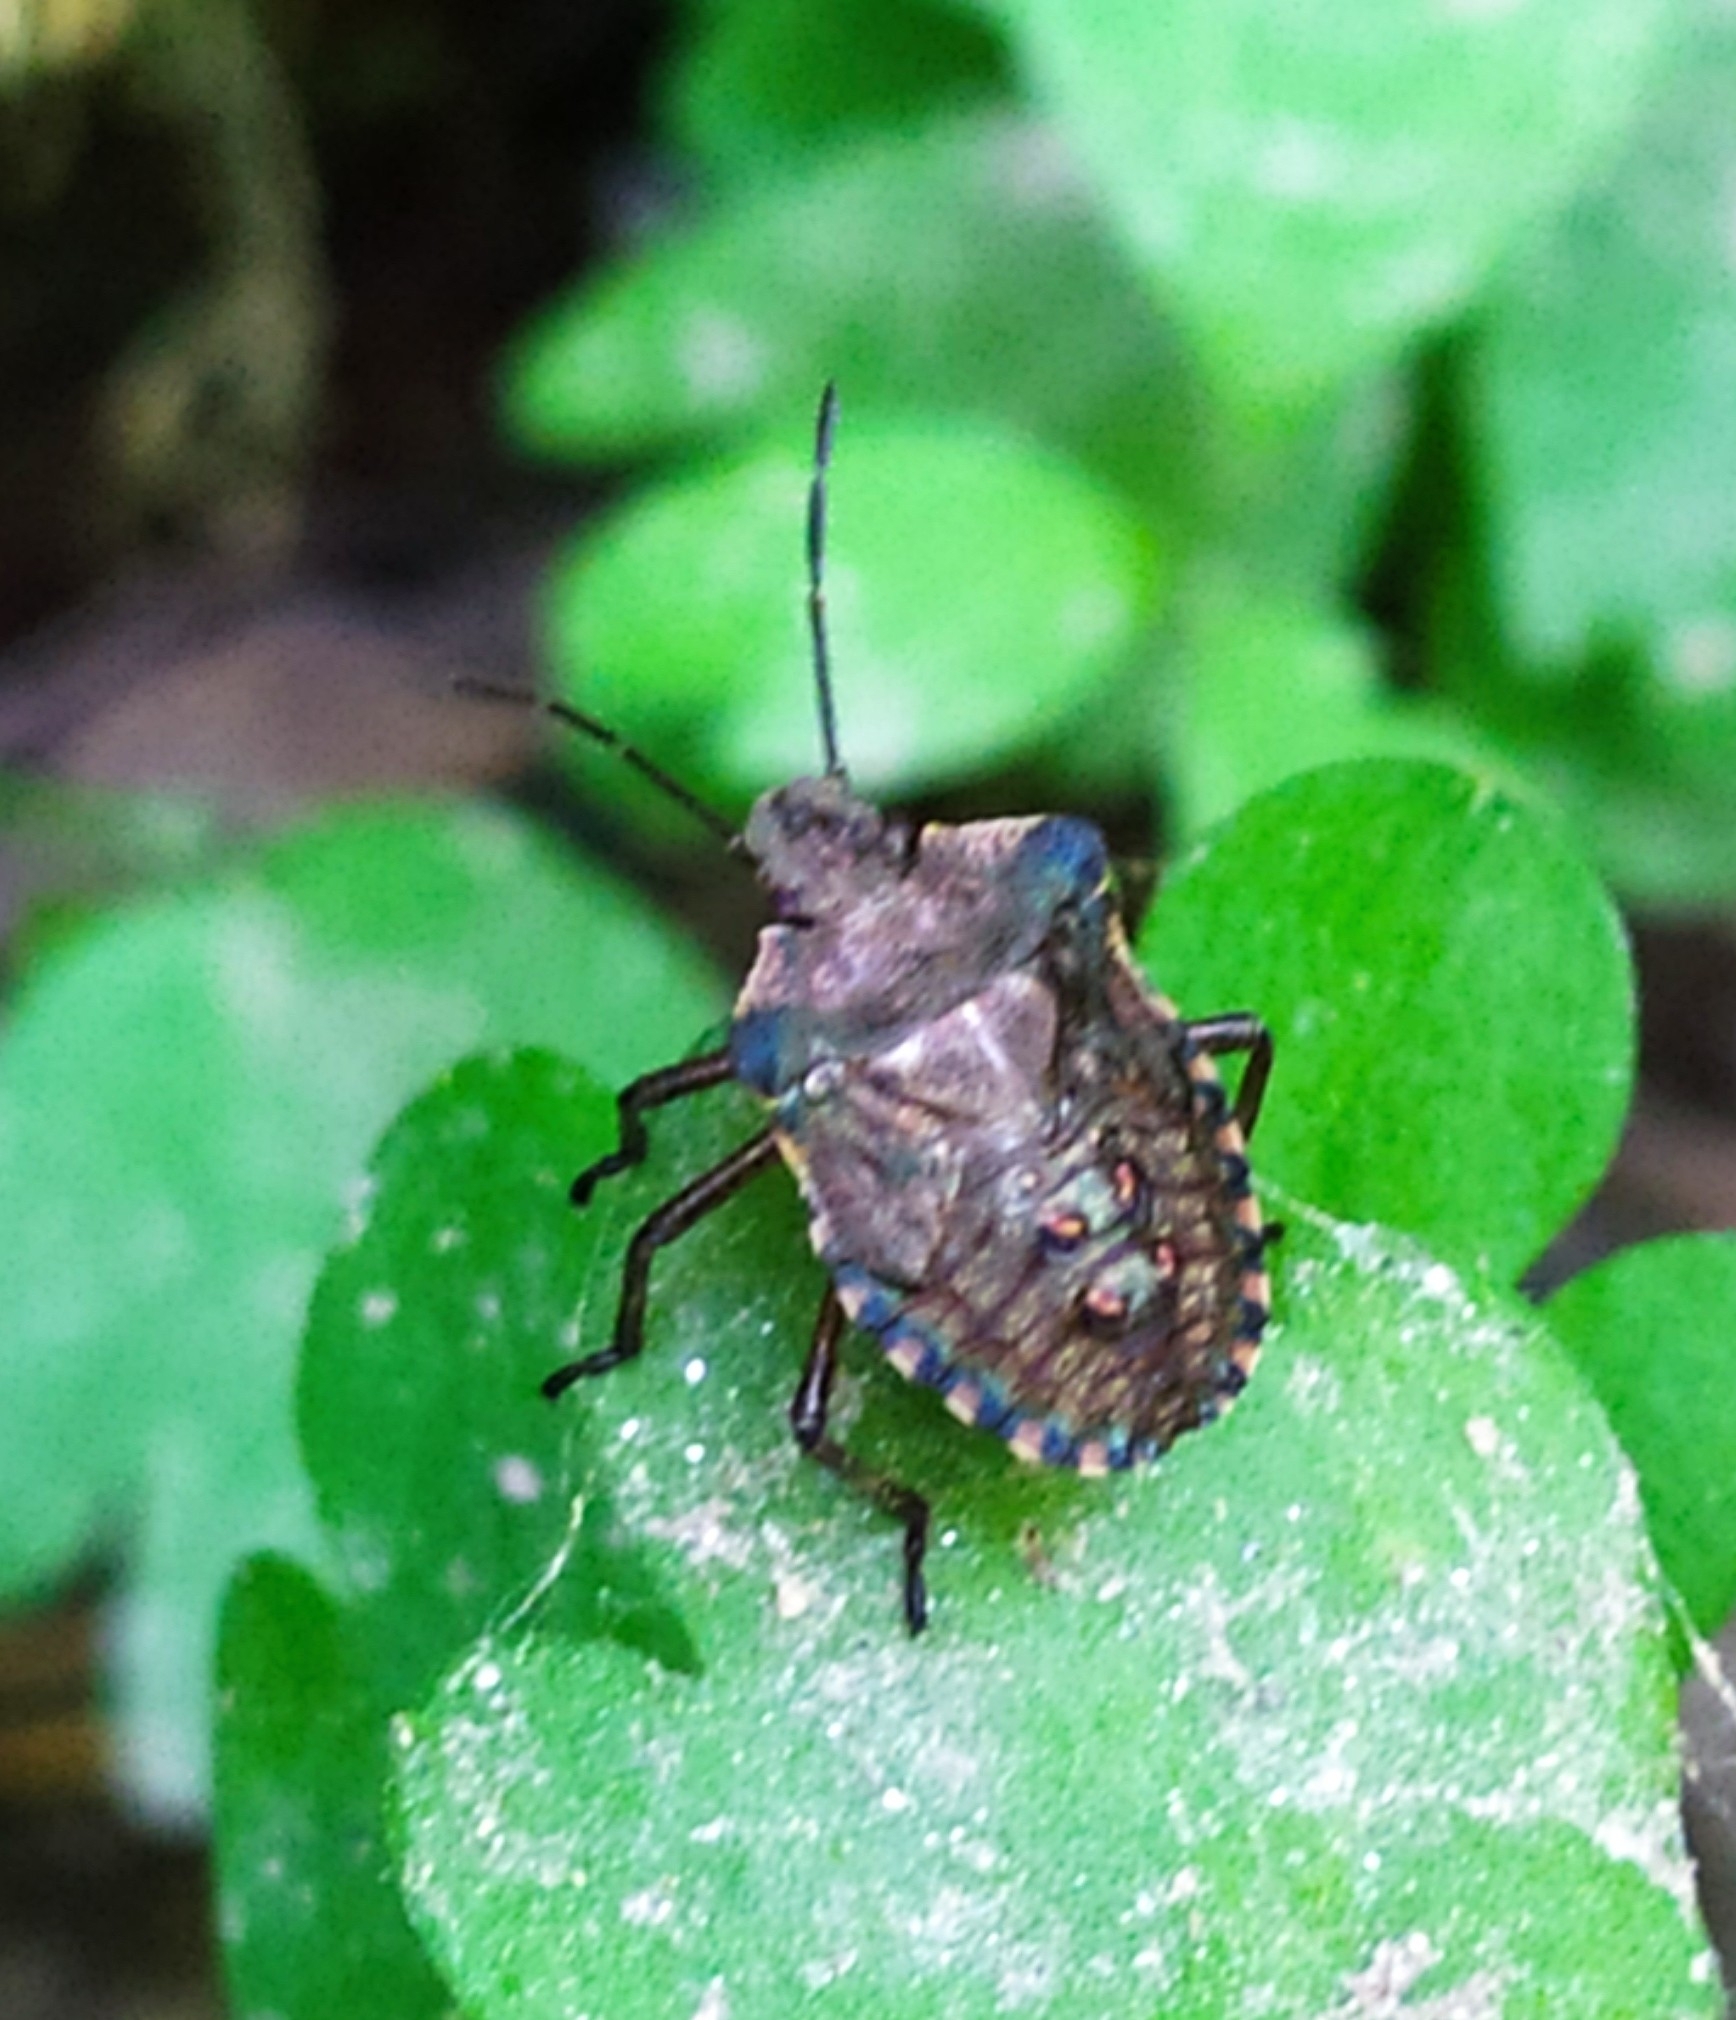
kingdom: Animalia
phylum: Arthropoda
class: Insecta
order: Hemiptera
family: Pentatomidae
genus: Pentatoma
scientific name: Pentatoma rufipes
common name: Forest bug
